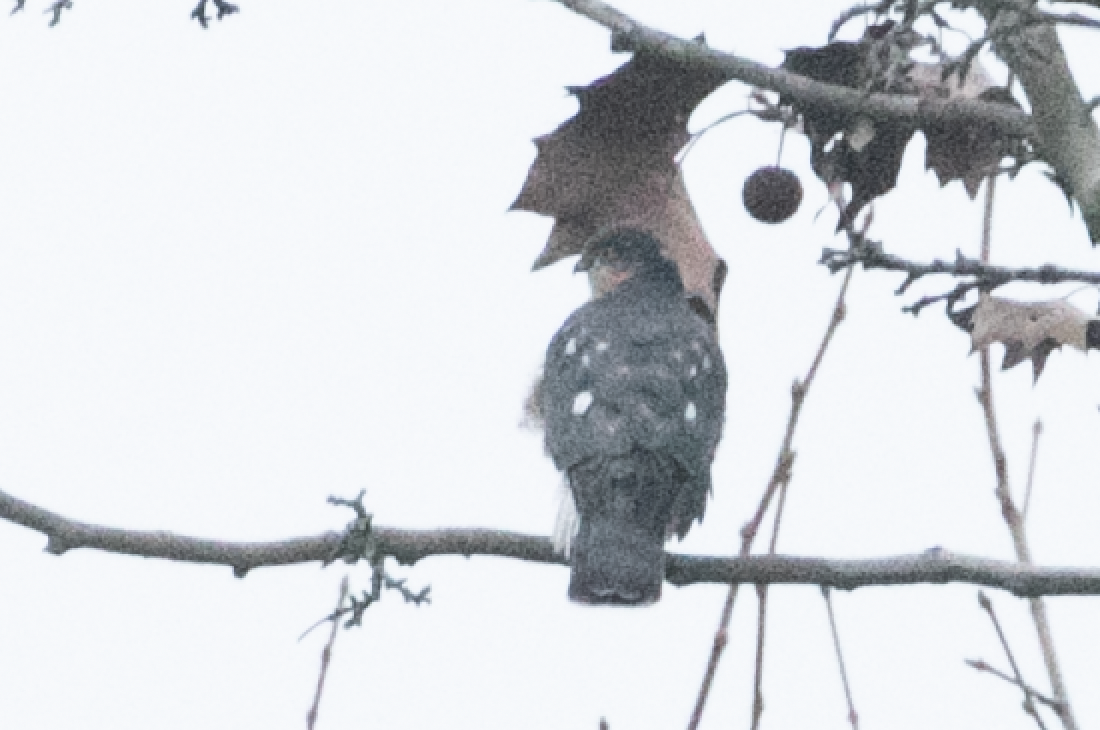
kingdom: Animalia
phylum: Chordata
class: Aves
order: Accipitriformes
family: Accipitridae
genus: Accipiter
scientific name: Accipiter nisus
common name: Eurasian sparrowhawk
